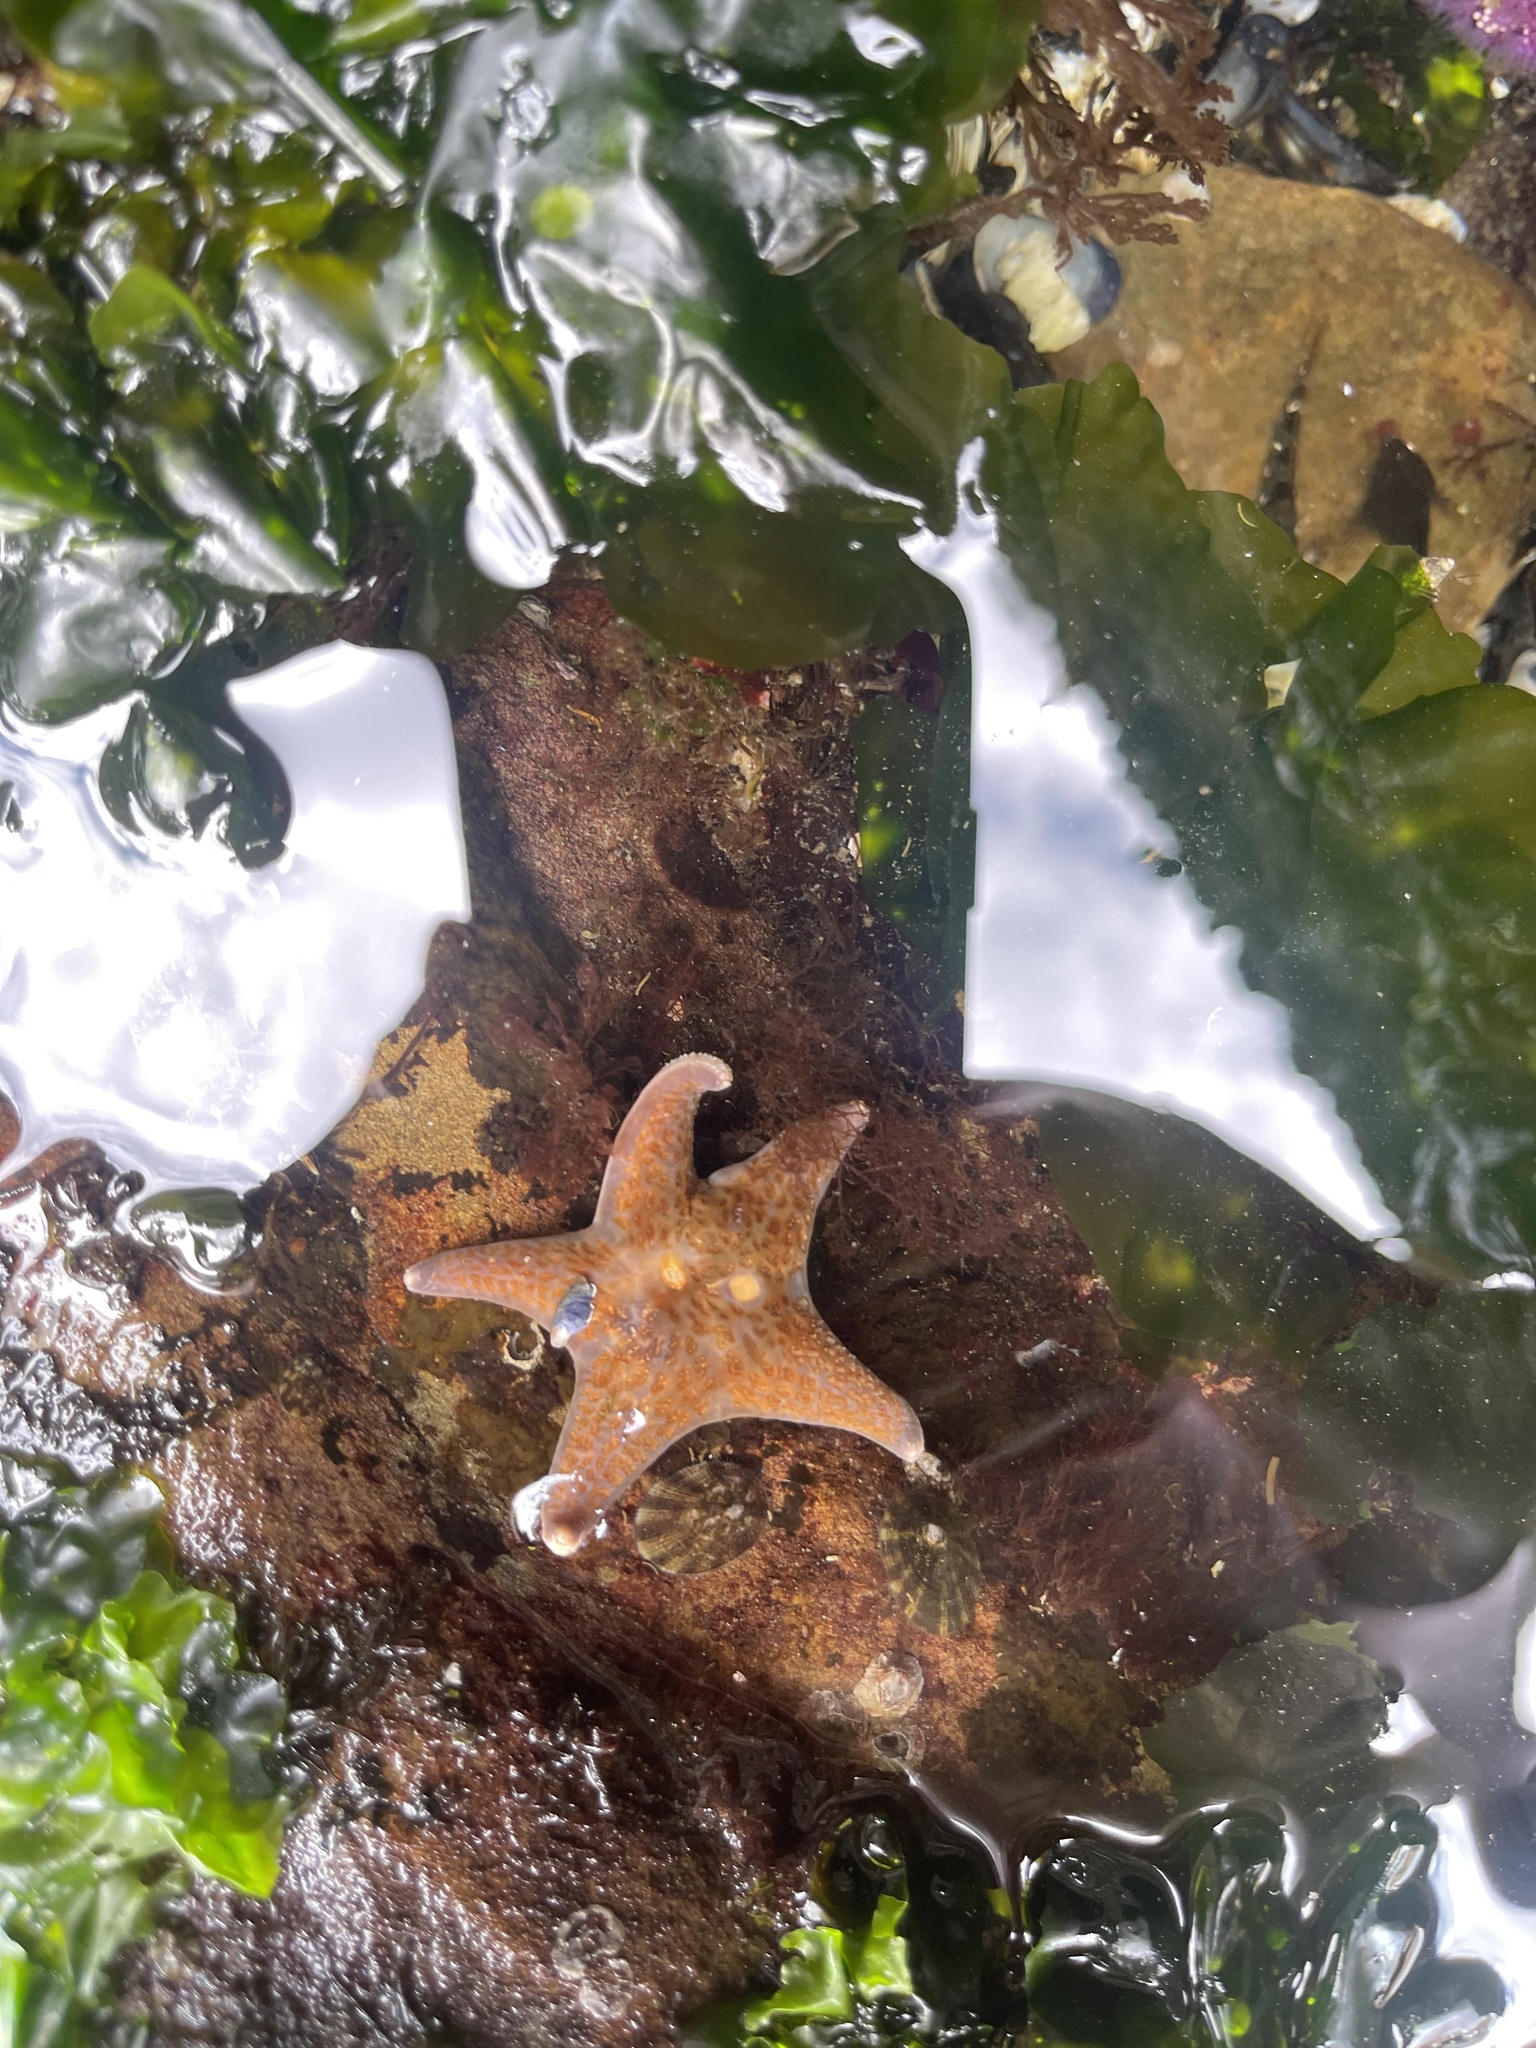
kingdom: Animalia
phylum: Echinodermata
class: Asteroidea
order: Valvatida
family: Asteropseidae
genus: Dermasterias
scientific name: Dermasterias imbricata
